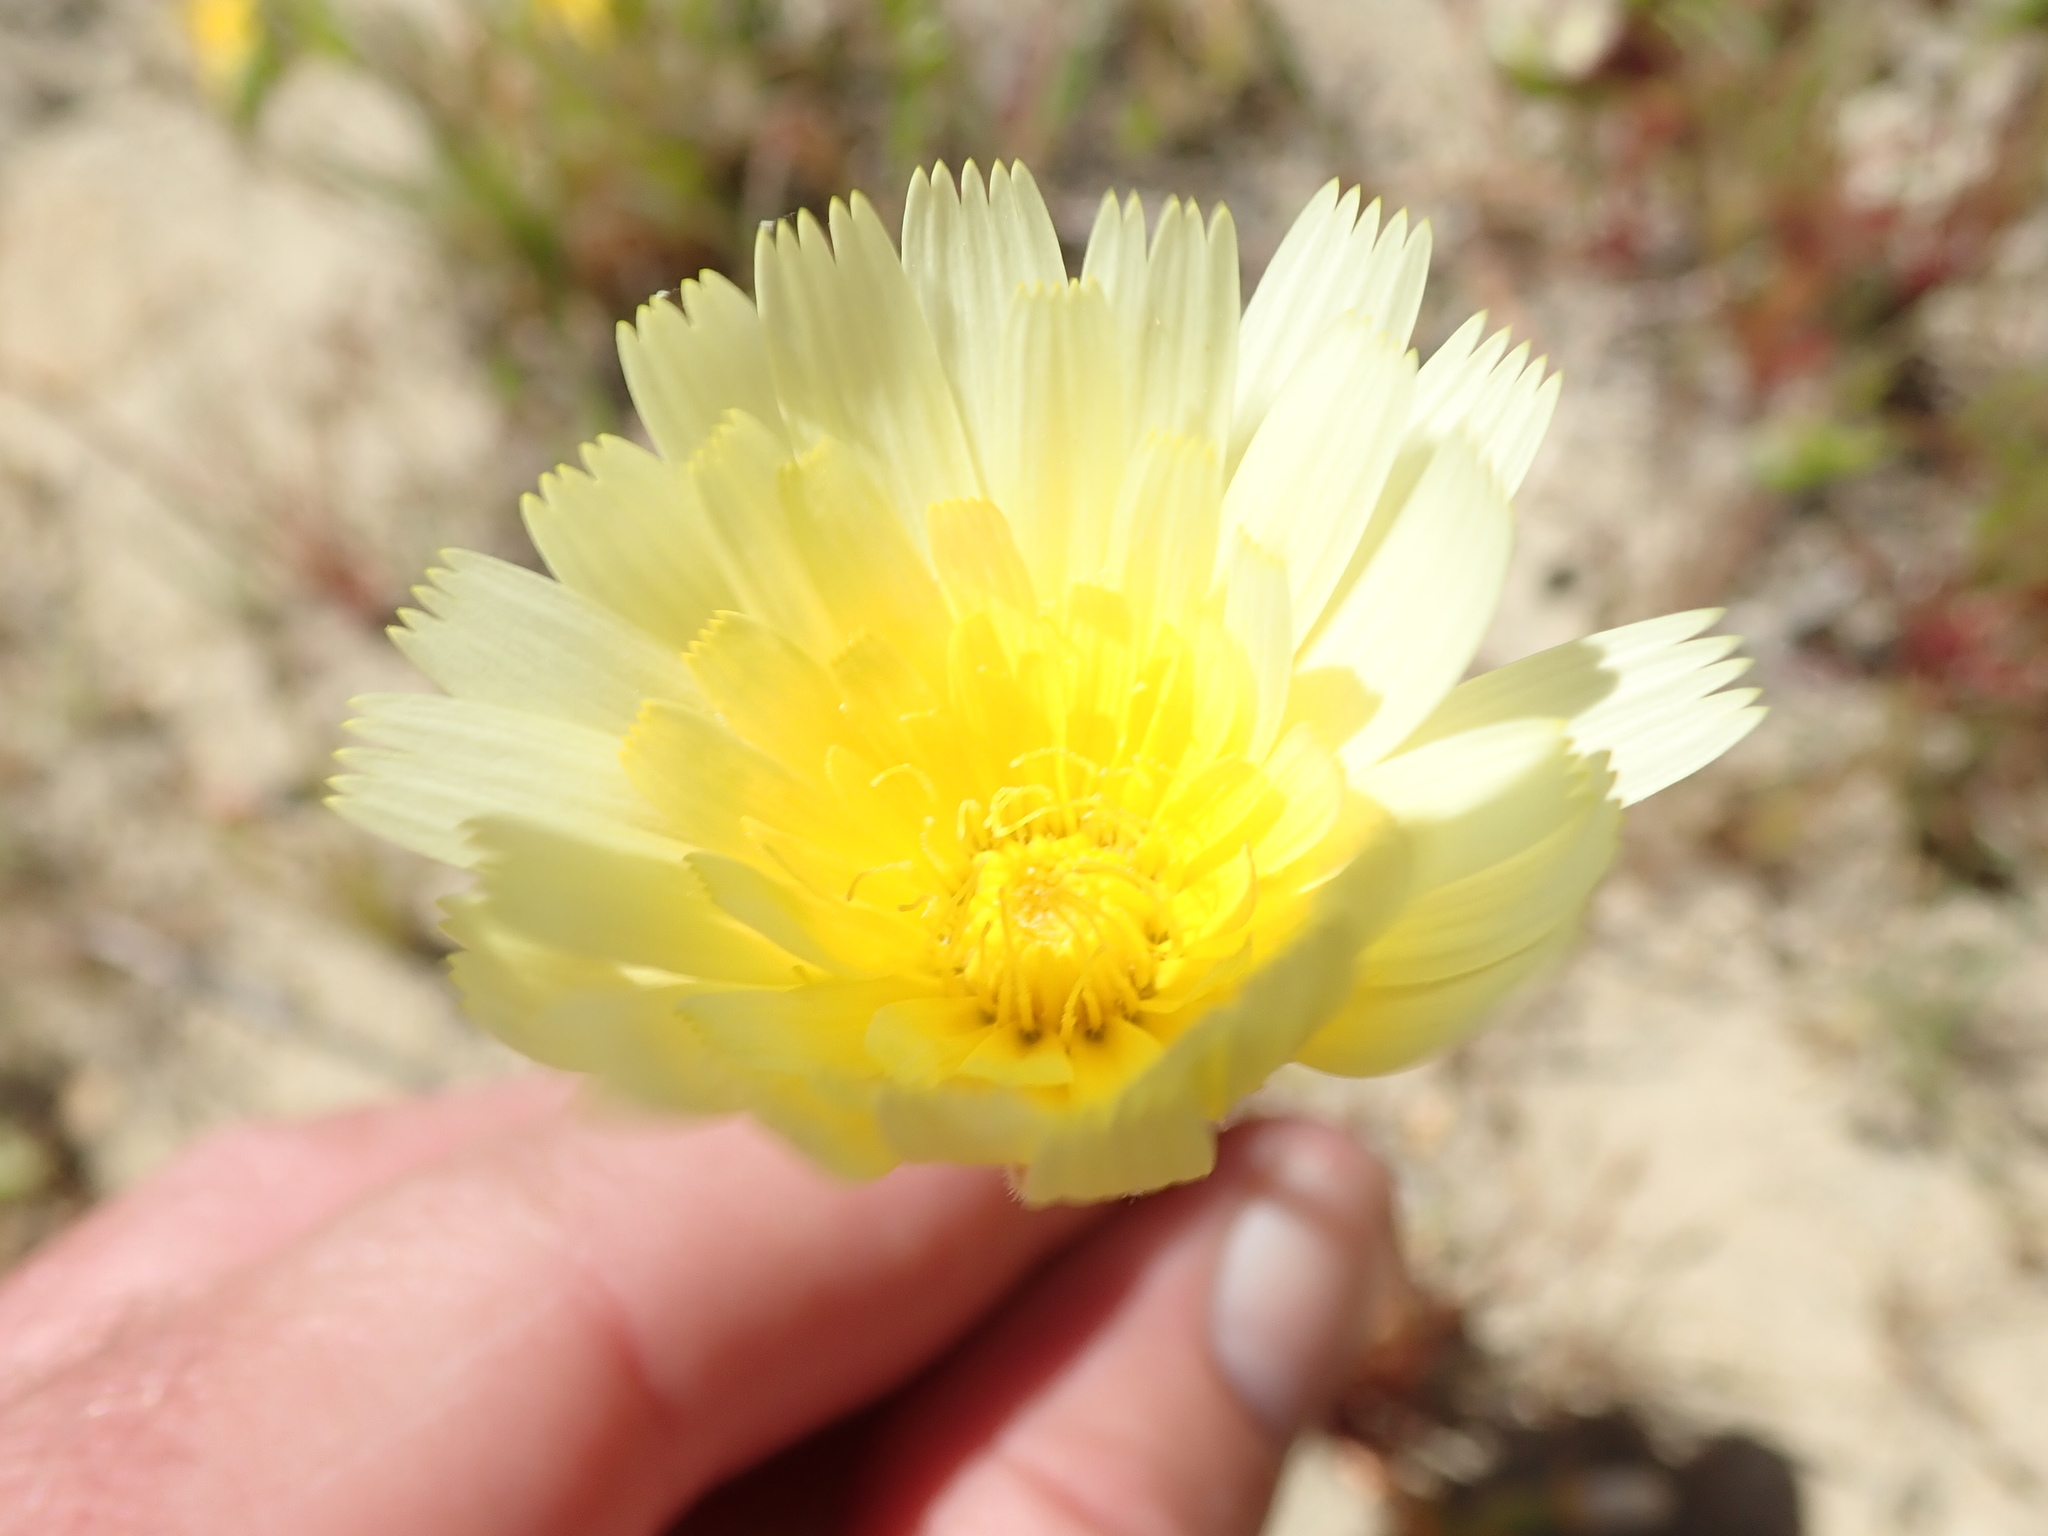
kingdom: Plantae
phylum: Tracheophyta
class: Magnoliopsida
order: Asterales
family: Asteraceae
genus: Malacothrix
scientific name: Malacothrix glabrata
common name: Smooth desert-dandelion
